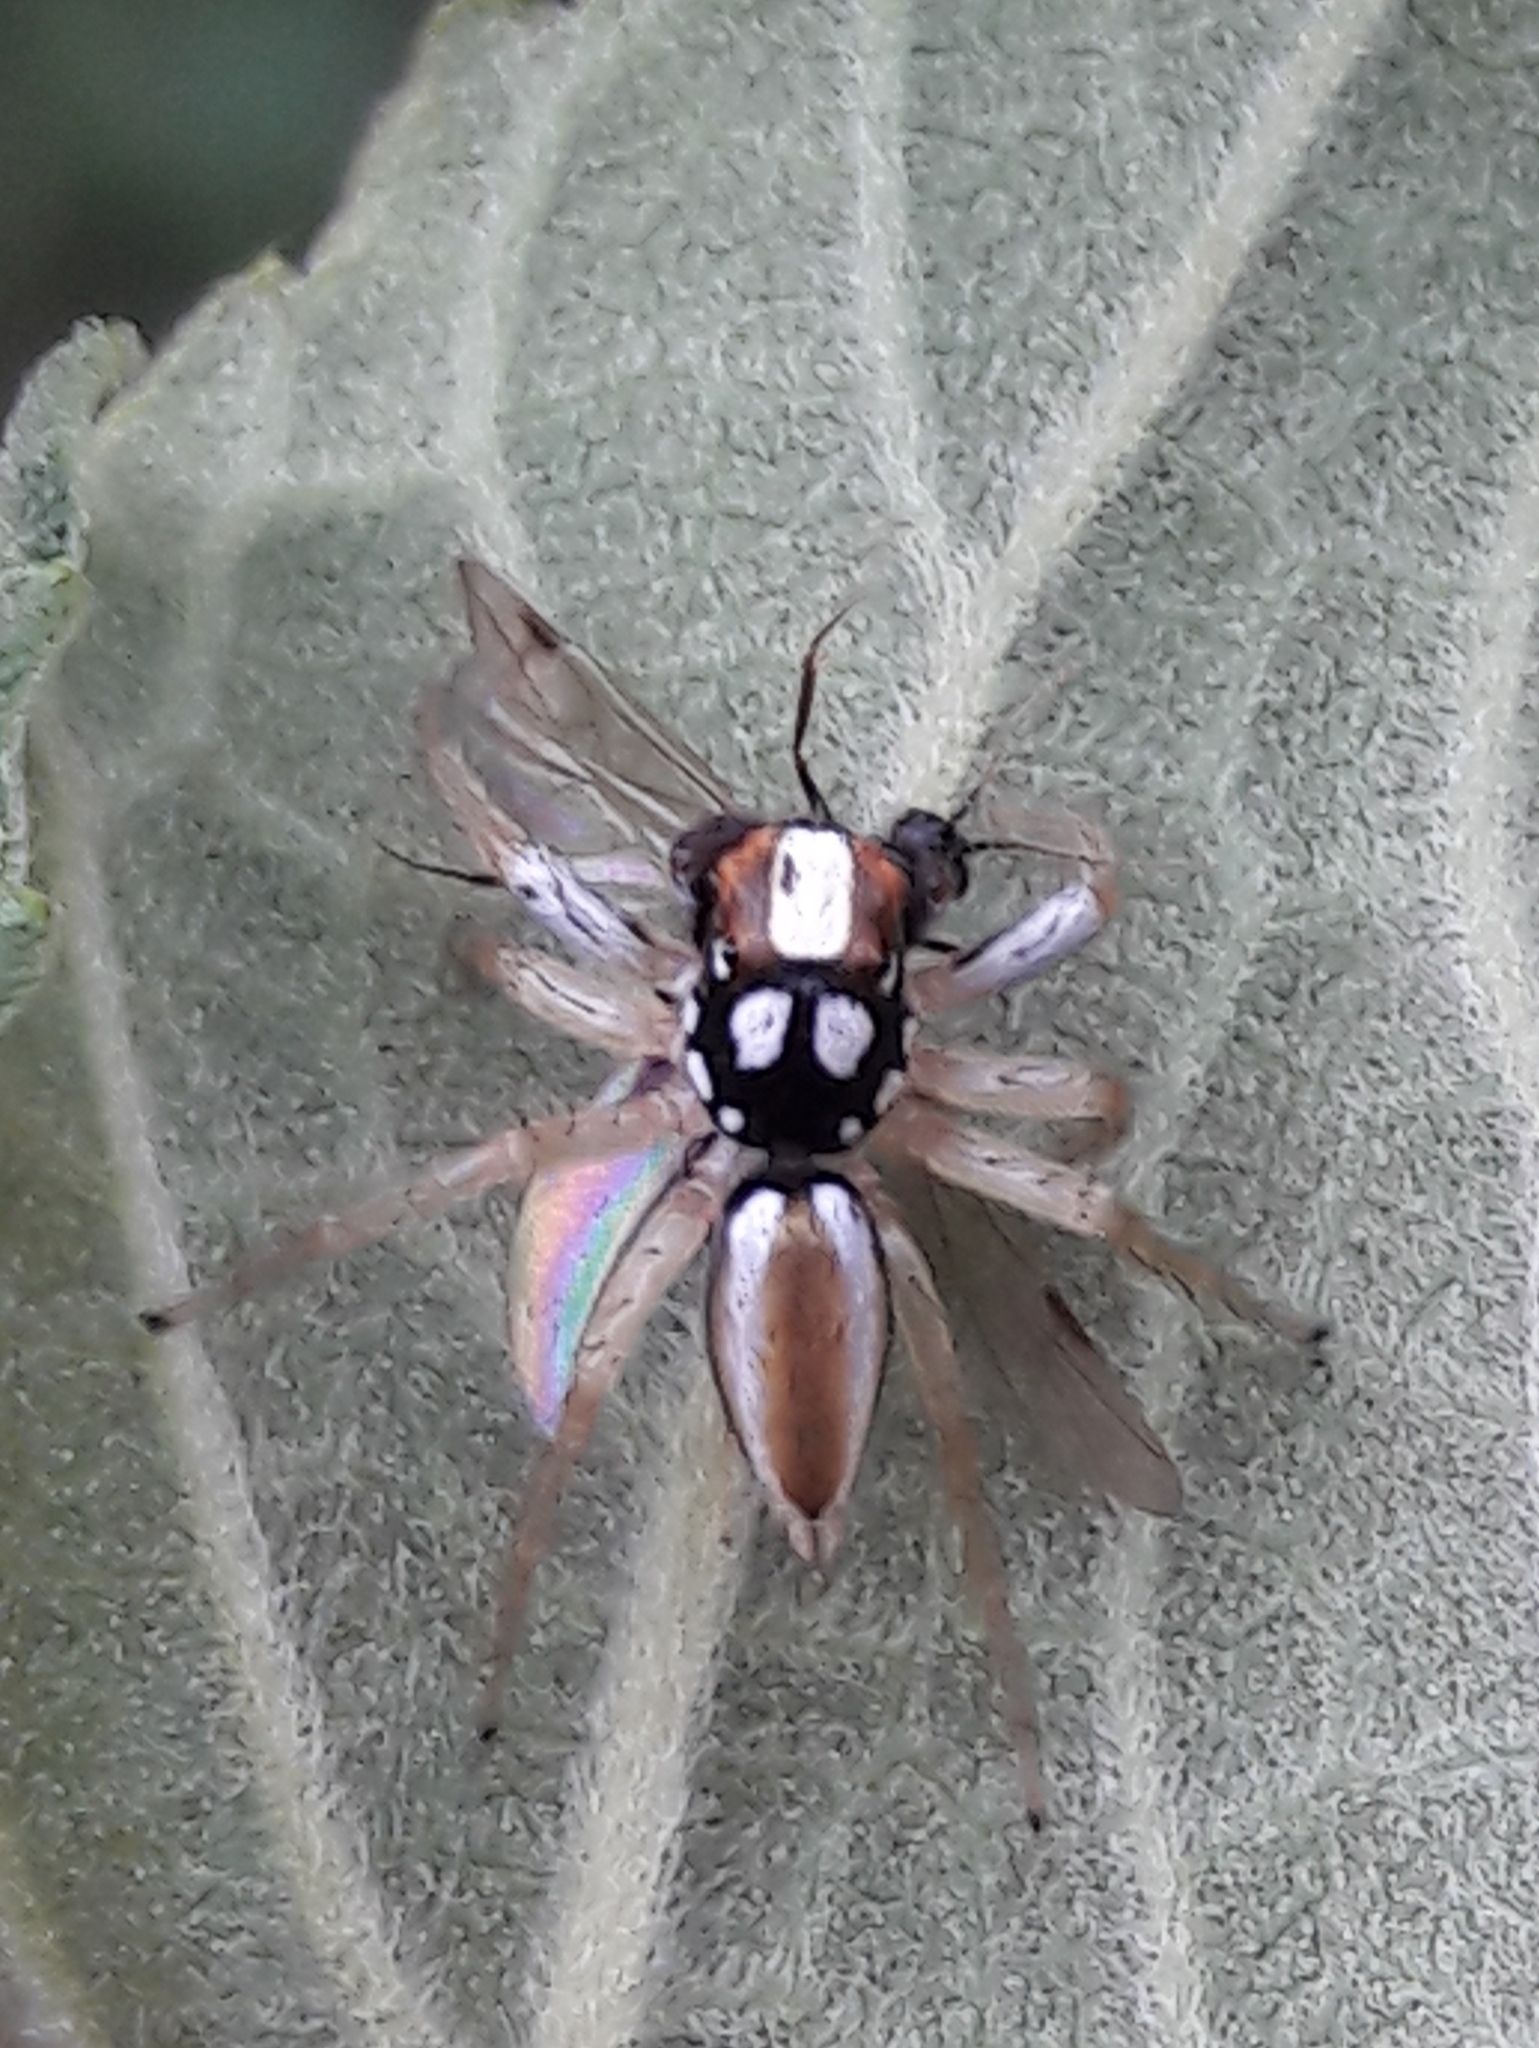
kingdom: Animalia
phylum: Arthropoda
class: Arachnida
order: Araneae
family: Salticidae
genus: Chira
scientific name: Chira spinosa
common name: Jumping spiders
